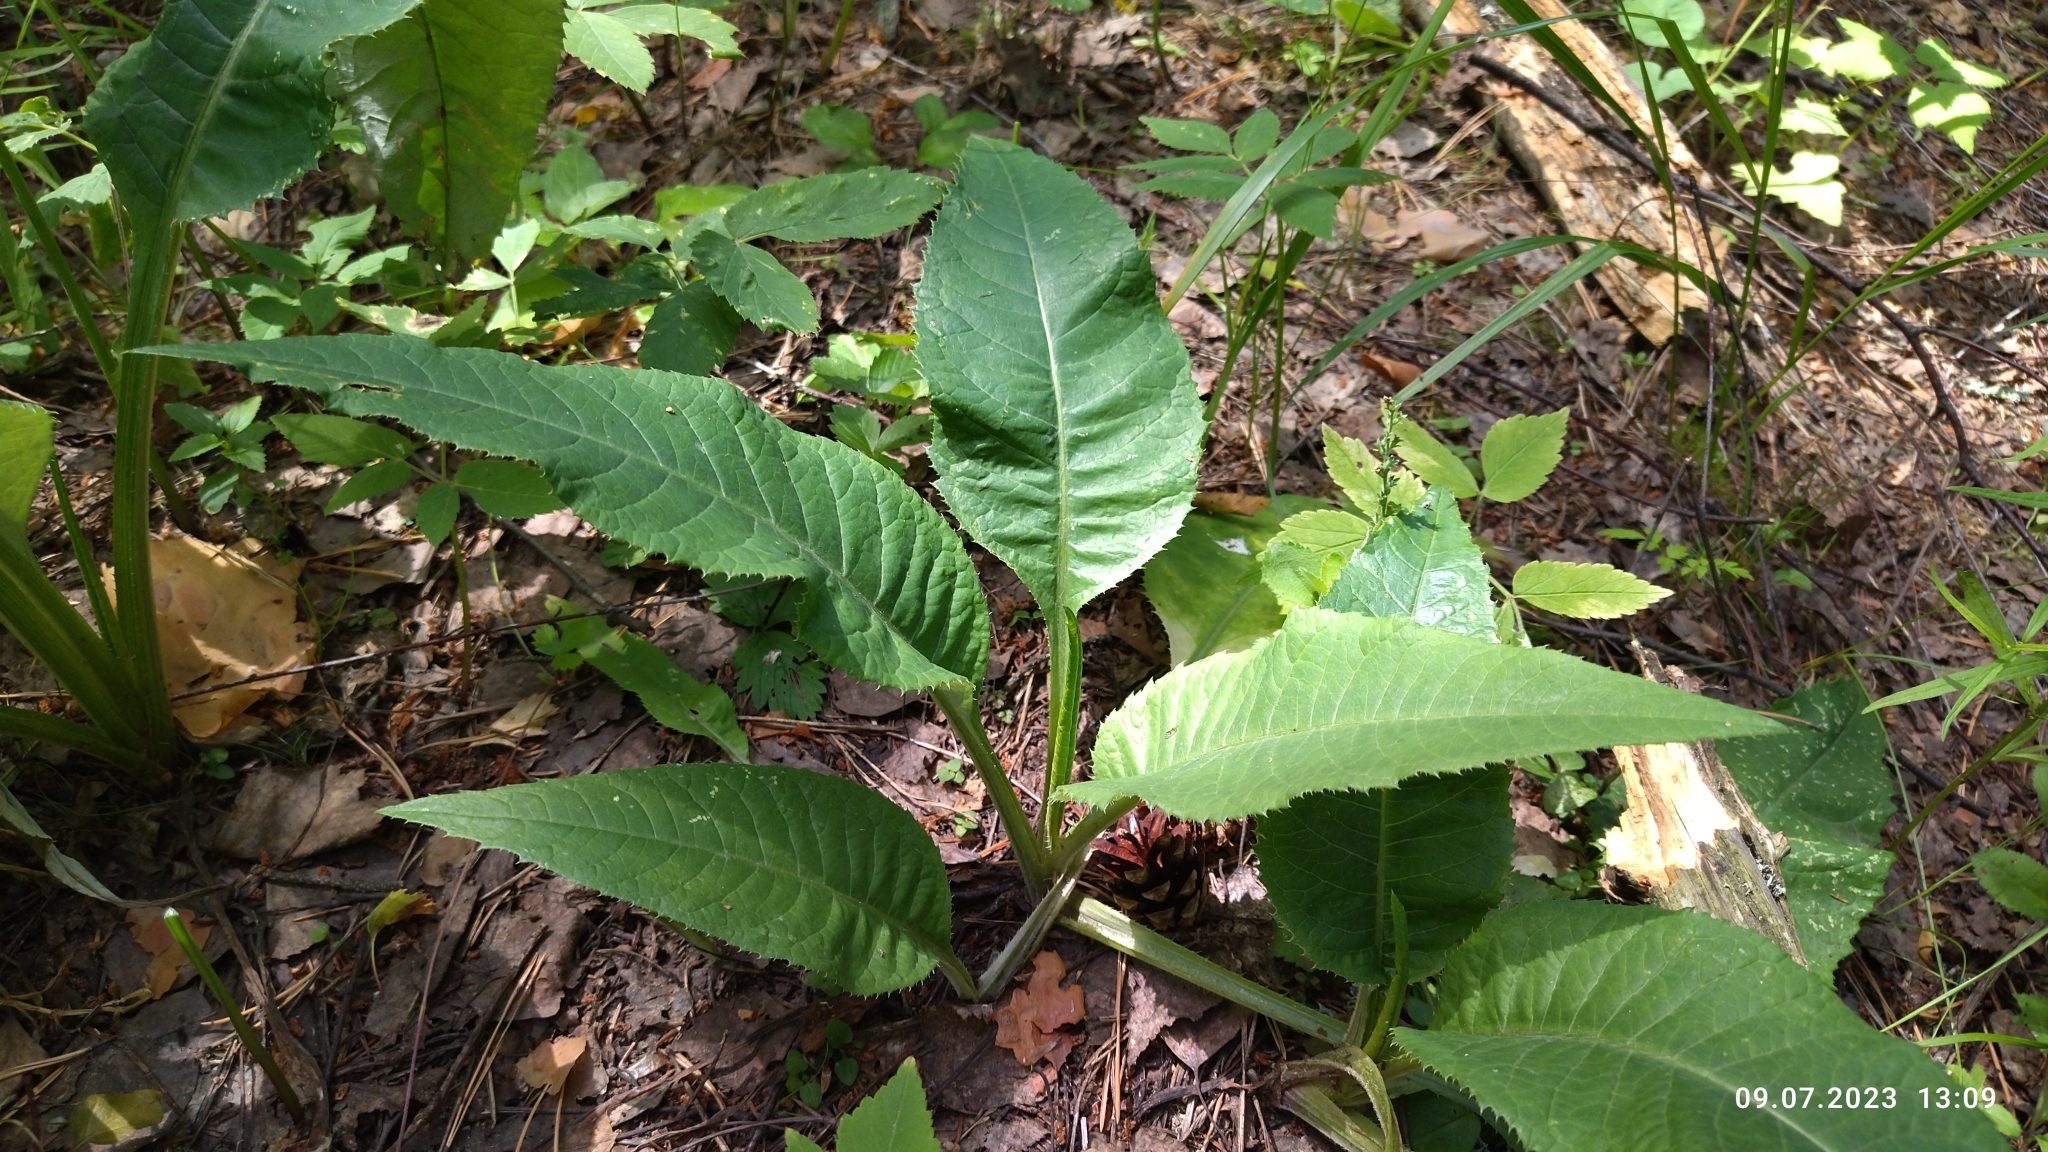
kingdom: Plantae
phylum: Tracheophyta
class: Magnoliopsida
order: Asterales
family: Asteraceae
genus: Cirsium
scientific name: Cirsium heterophyllum
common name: Melancholy thistle
